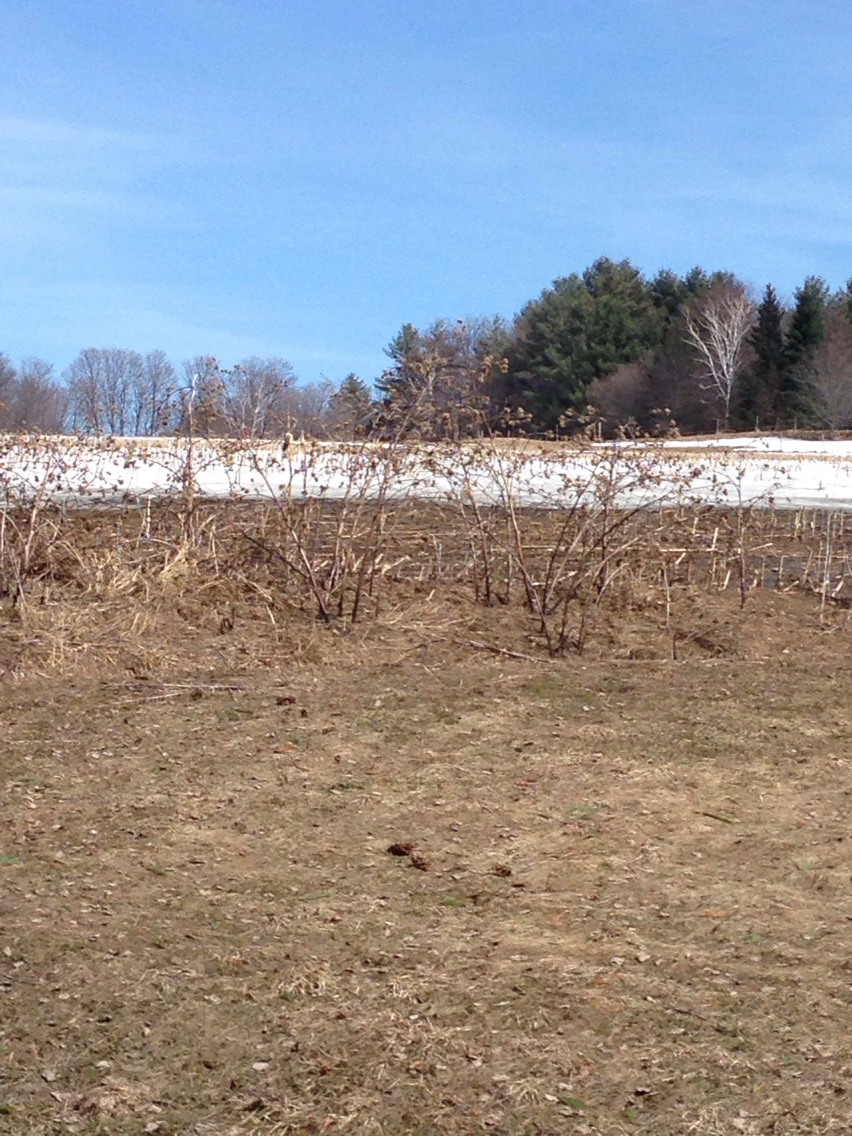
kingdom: Plantae
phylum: Tracheophyta
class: Magnoliopsida
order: Asterales
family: Asteraceae
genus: Arctium
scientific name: Arctium lappa
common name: Greater burdock
